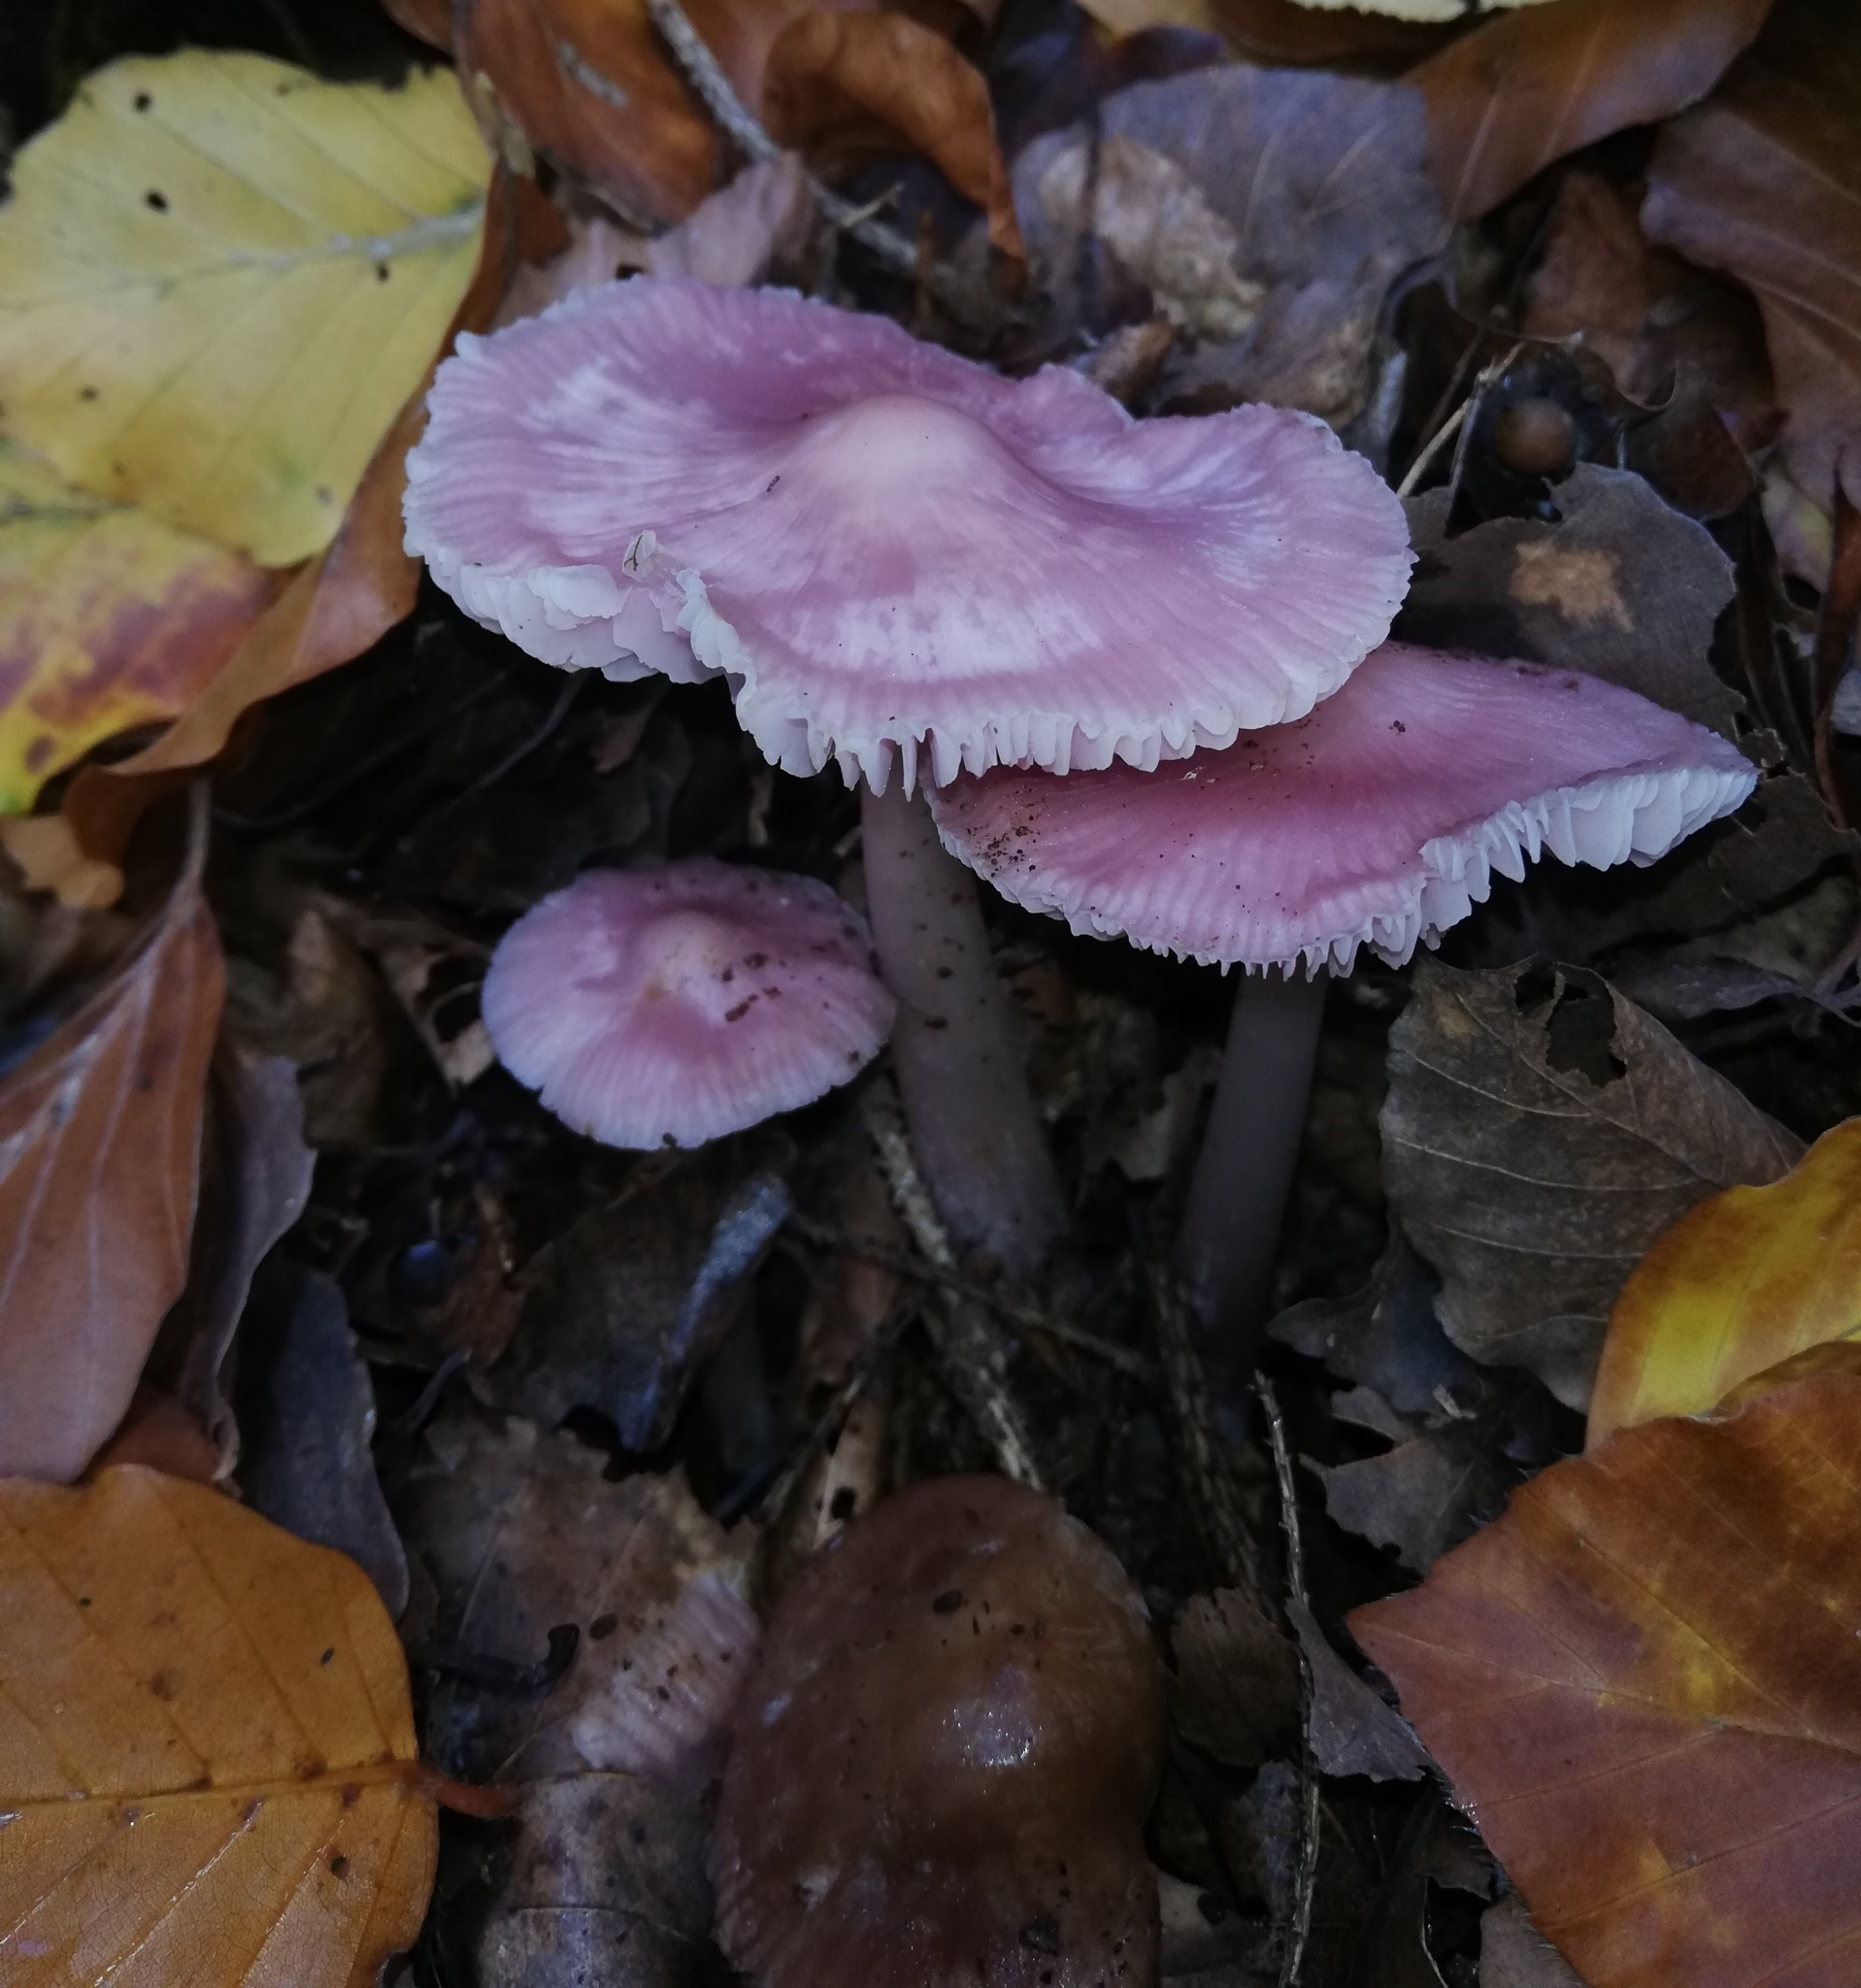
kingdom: Fungi
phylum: Basidiomycota
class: Agaricomycetes
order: Agaricales
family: Mycenaceae
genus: Mycena
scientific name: Mycena rosea
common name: Rosy bonnet
